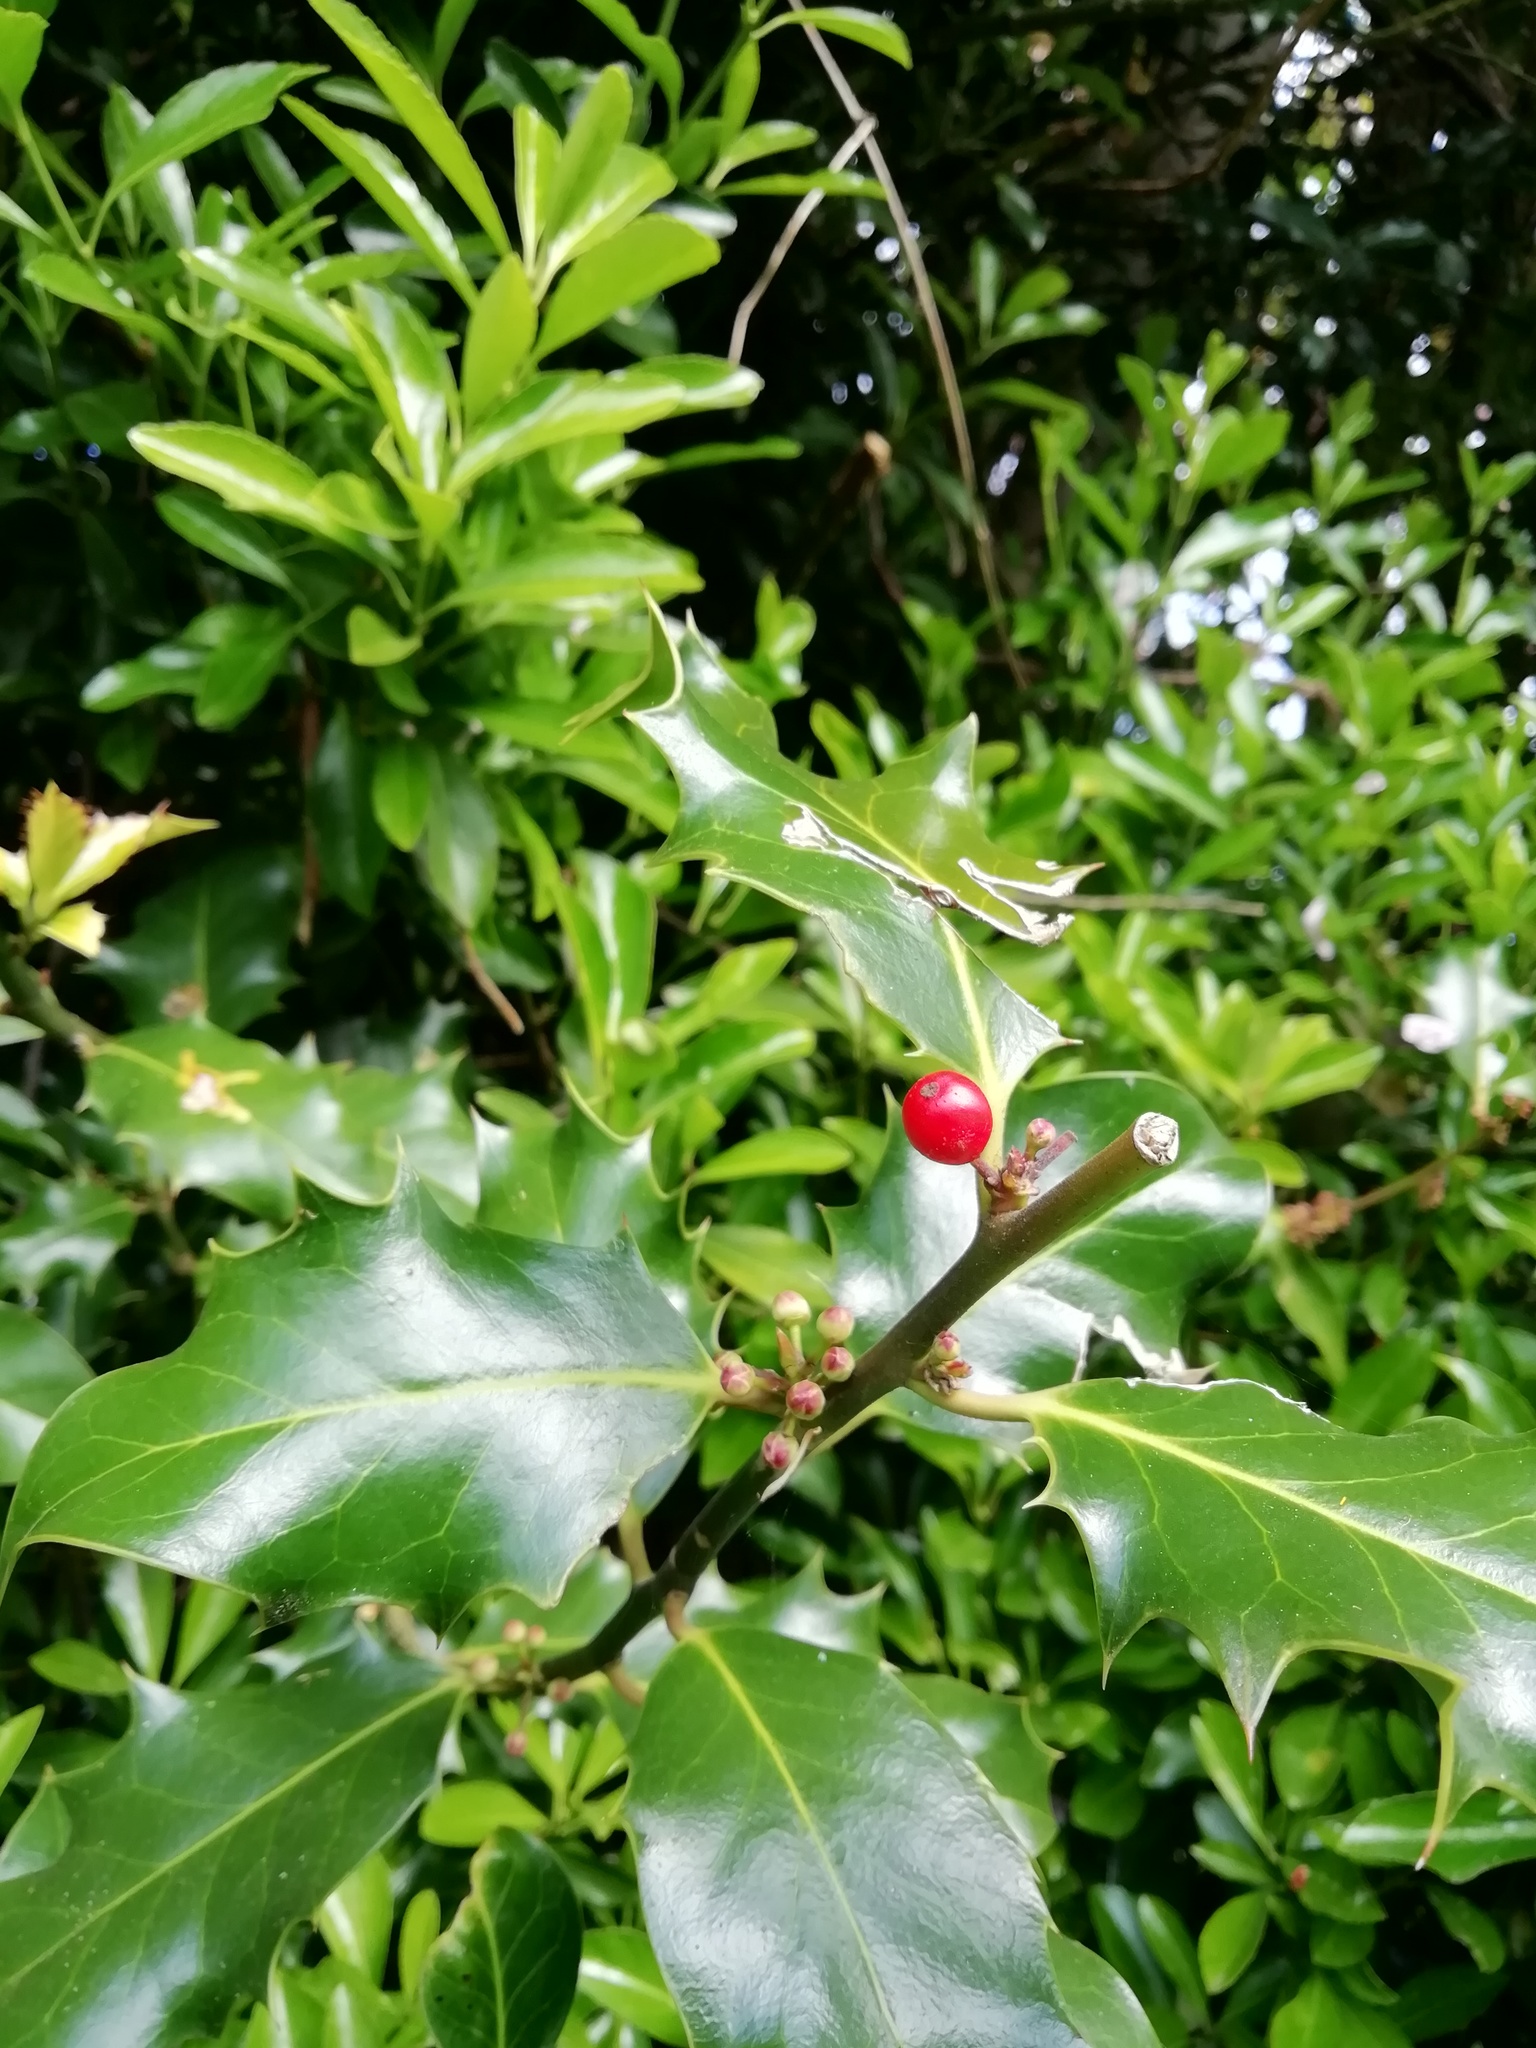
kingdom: Plantae
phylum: Tracheophyta
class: Magnoliopsida
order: Aquifoliales
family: Aquifoliaceae
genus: Ilex
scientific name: Ilex aquifolium
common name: English holly
